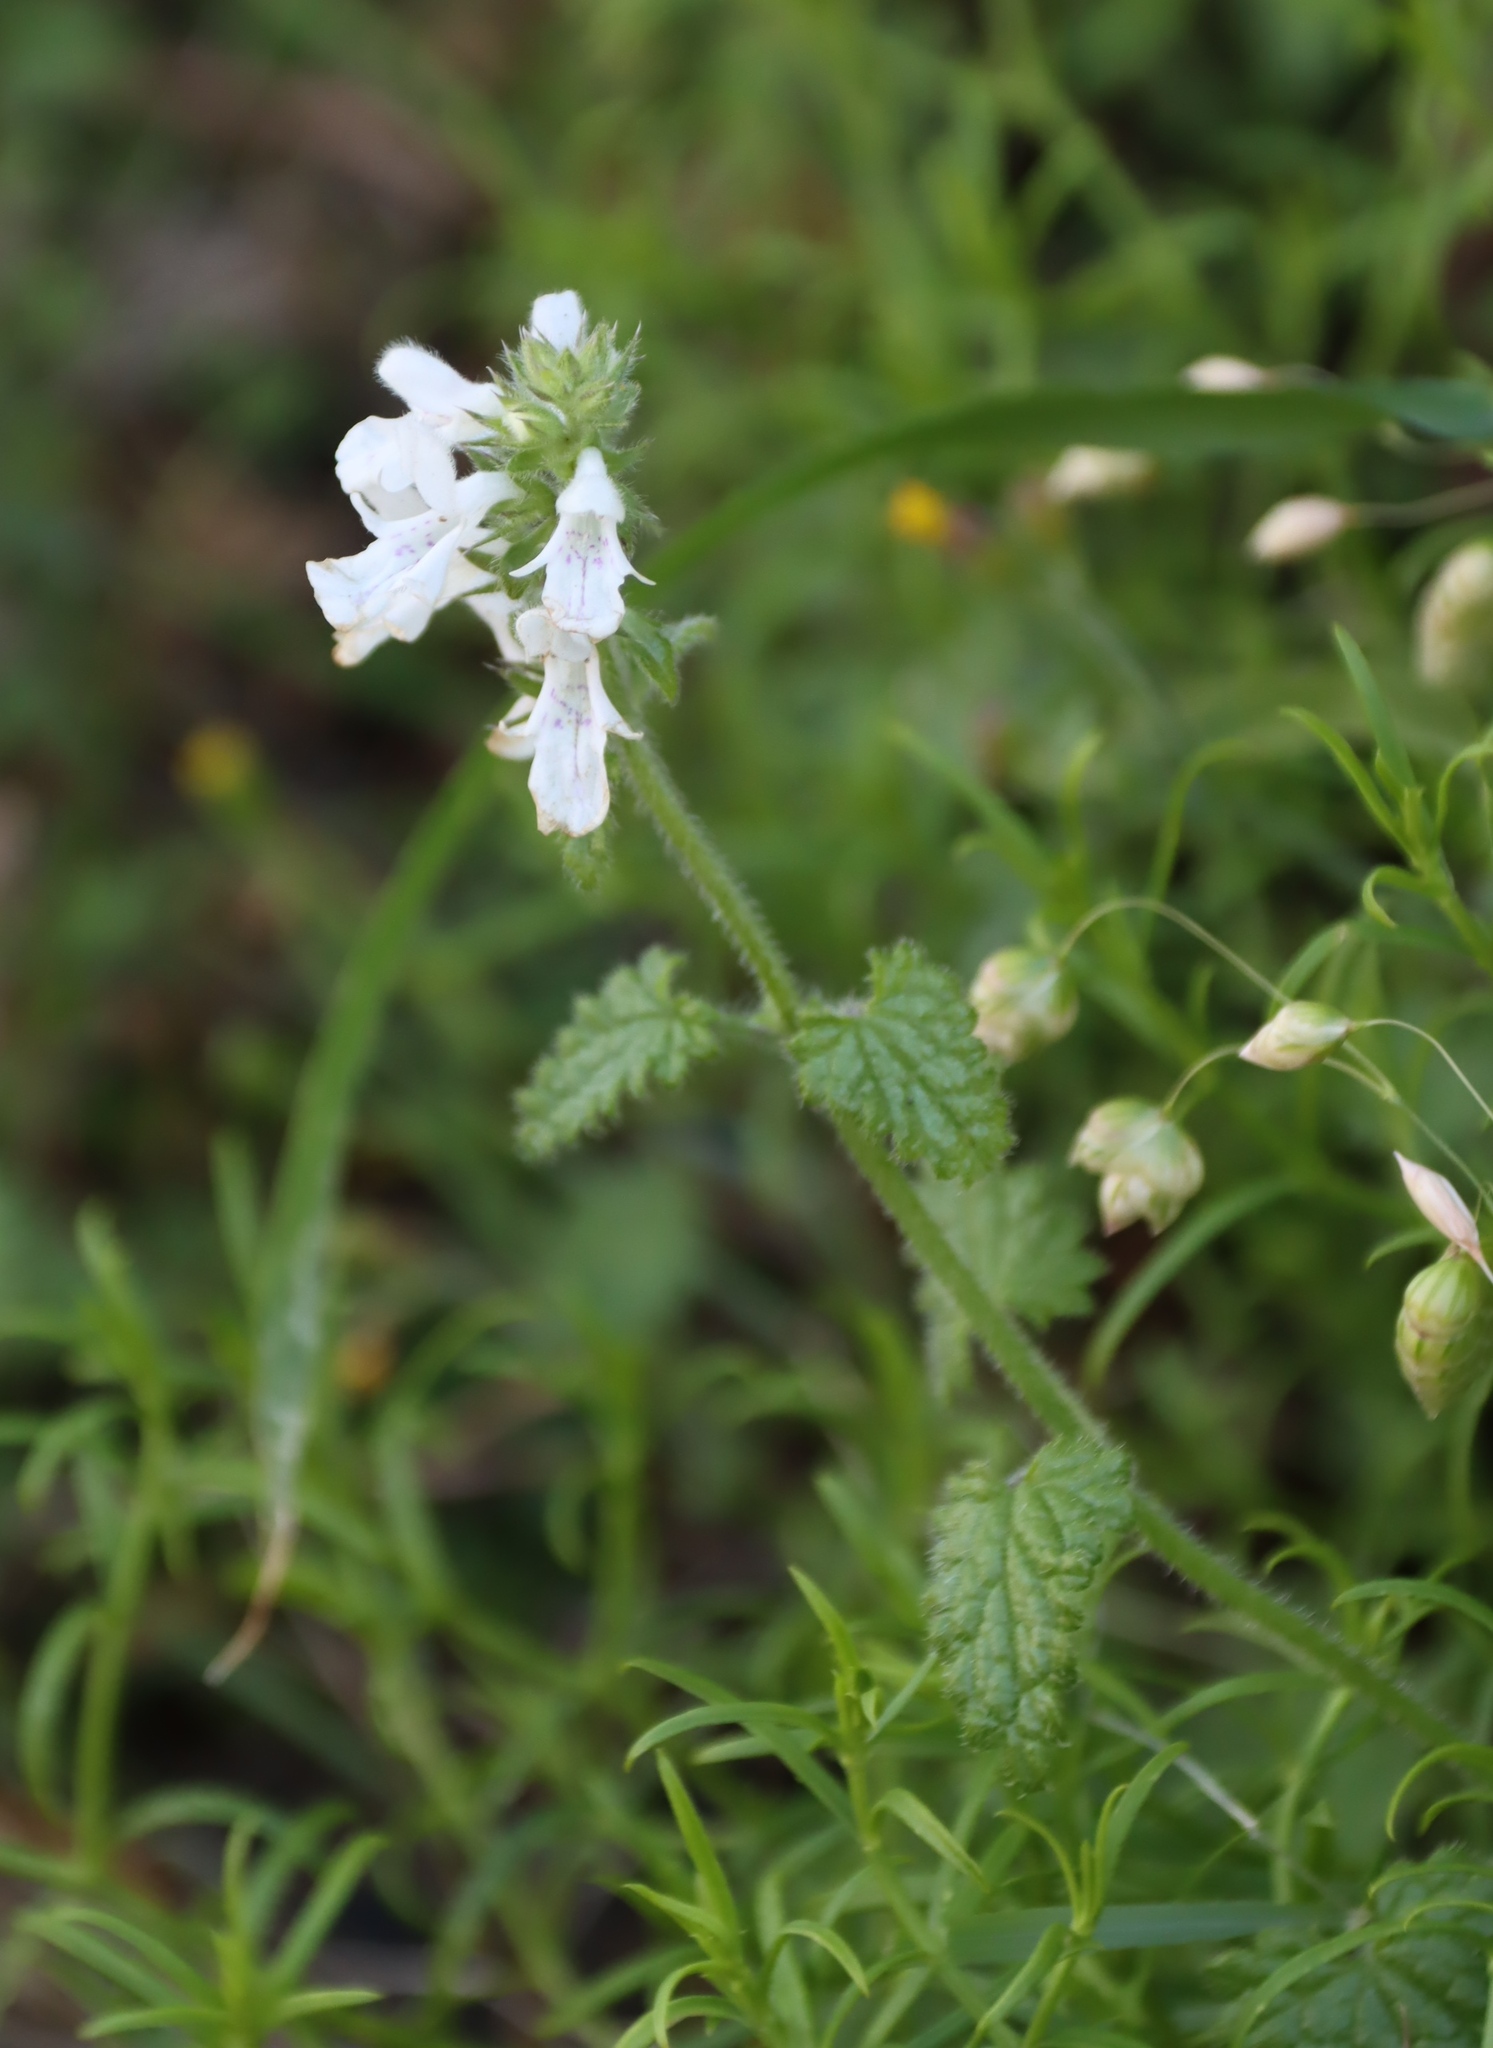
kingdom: Plantae
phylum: Tracheophyta
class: Magnoliopsida
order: Lamiales
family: Lamiaceae
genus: Stachys
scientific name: Stachys aethiopica
